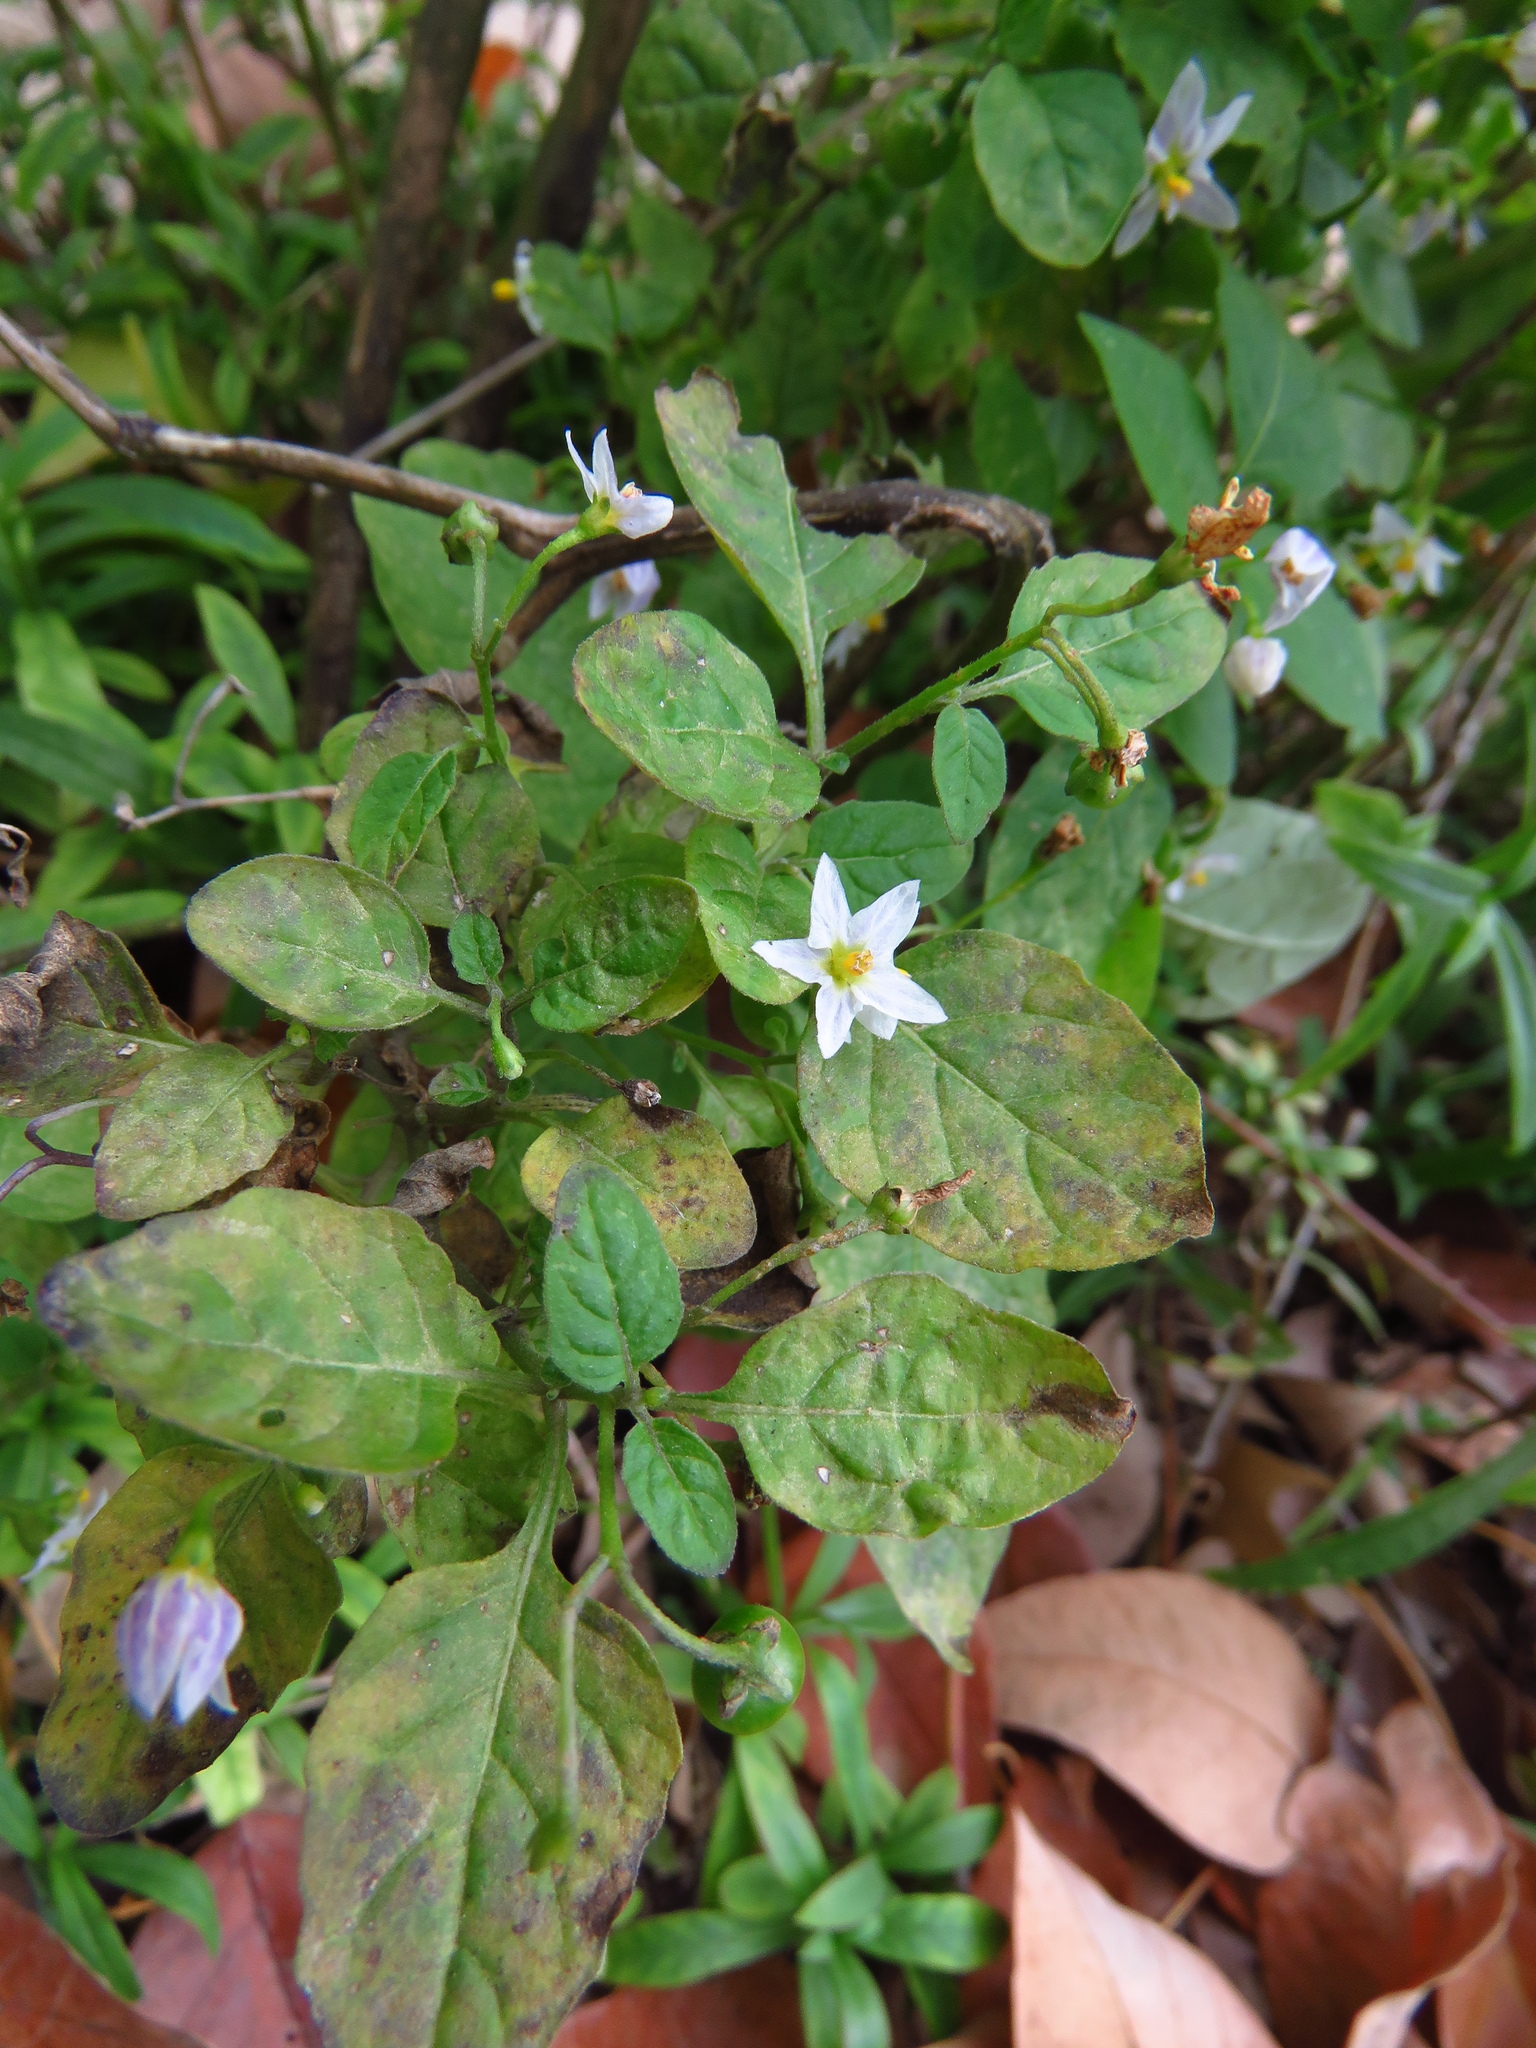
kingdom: Plantae
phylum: Tracheophyta
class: Magnoliopsida
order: Solanales
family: Solanaceae
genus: Solanum
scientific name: Solanum emulans
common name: Eastern black nightshade
